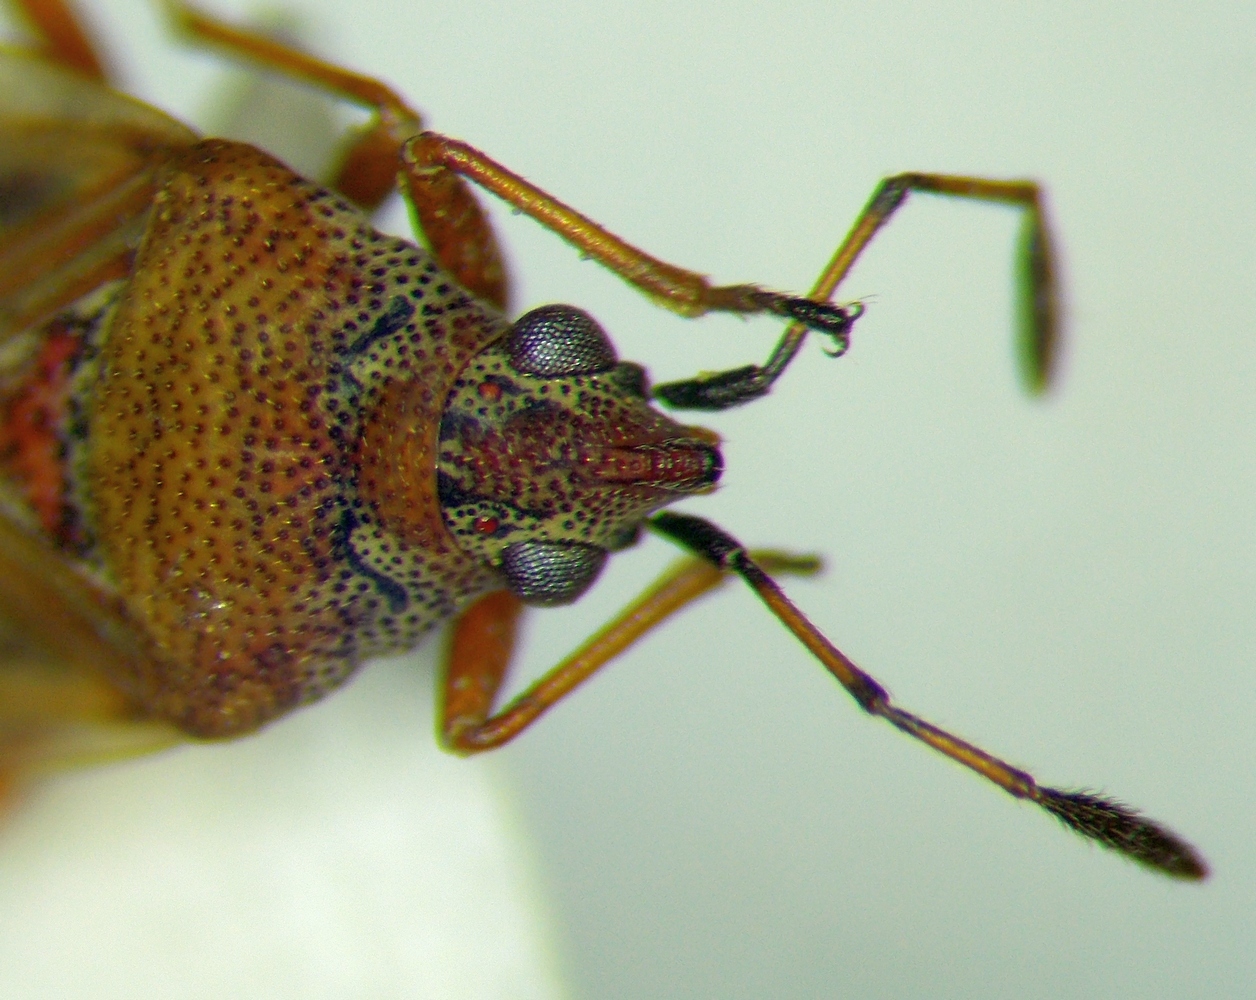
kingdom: Animalia
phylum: Arthropoda
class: Insecta
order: Hemiptera
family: Lygaeidae
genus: Kleidocerys
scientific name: Kleidocerys resedae
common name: Birch catkin bug
